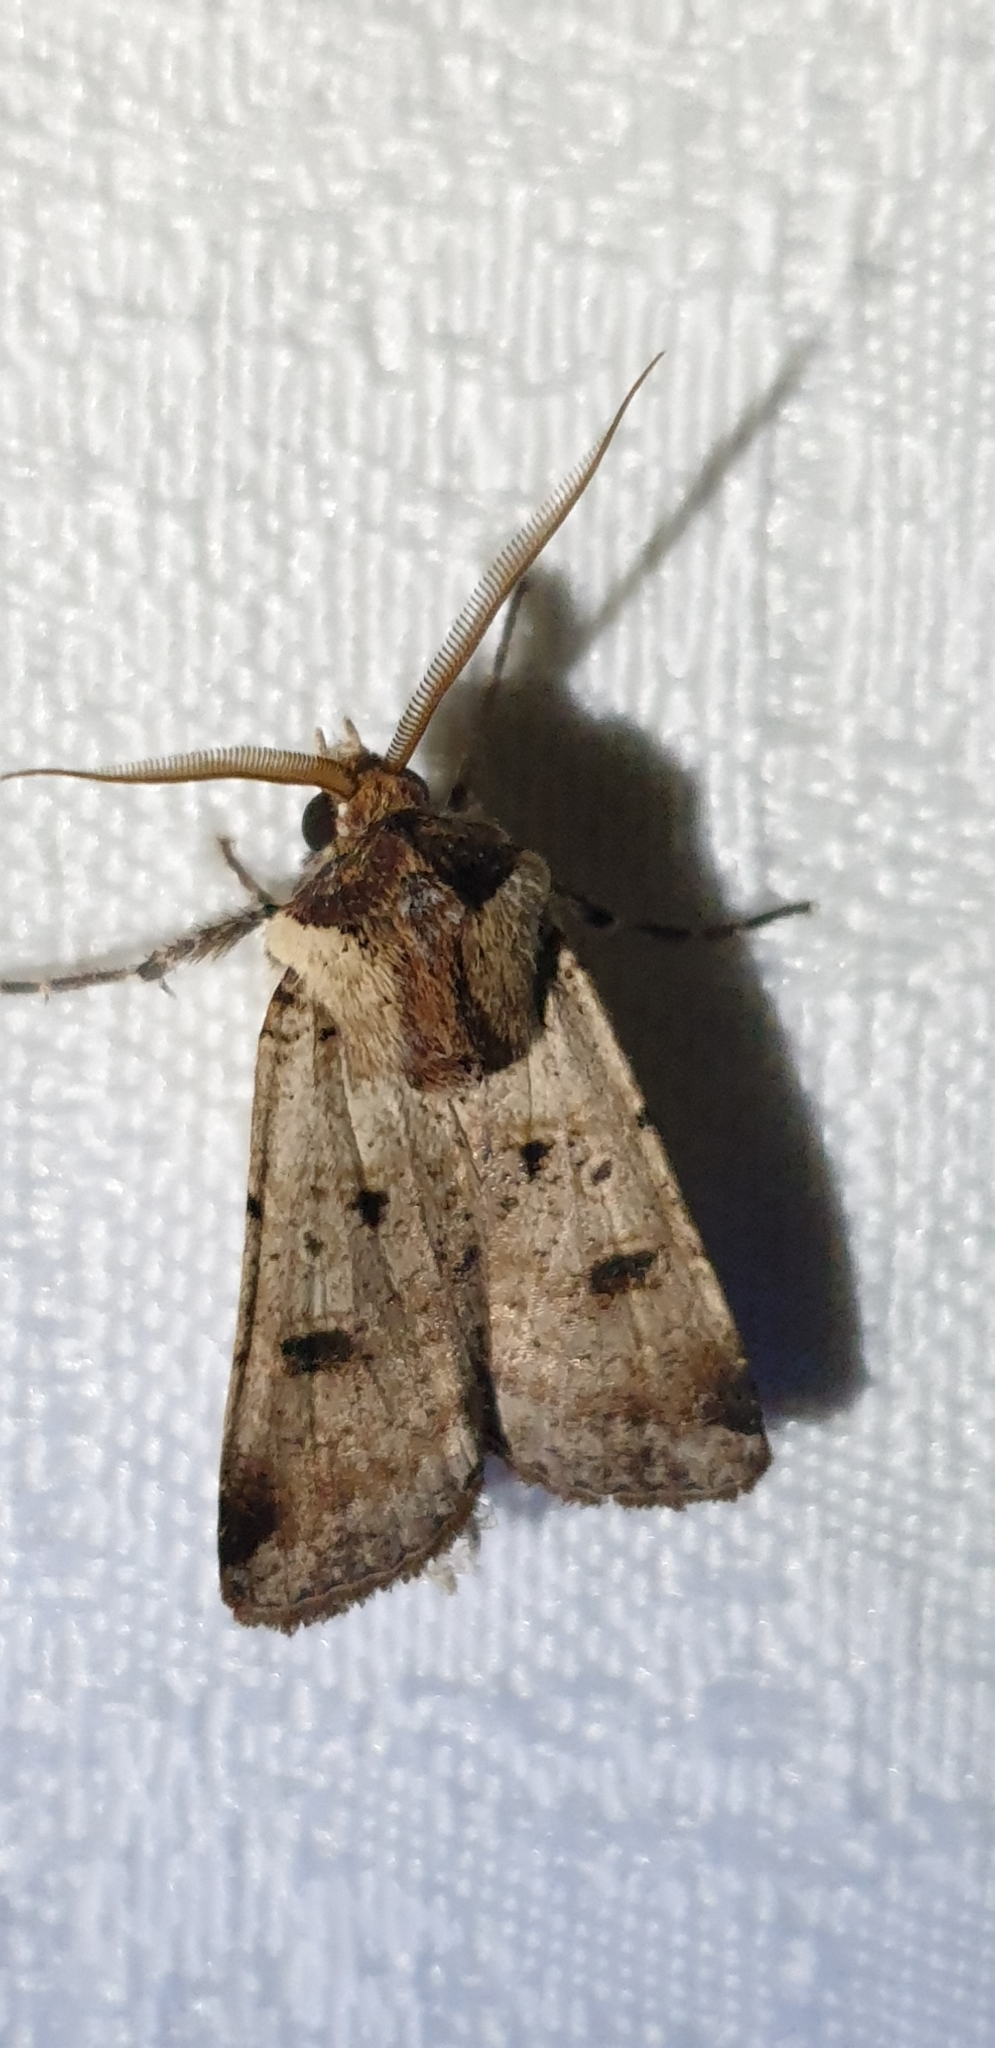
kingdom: Animalia
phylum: Arthropoda
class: Insecta
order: Lepidoptera
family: Noctuidae
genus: Agrotis
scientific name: Agrotis porphyricollis
